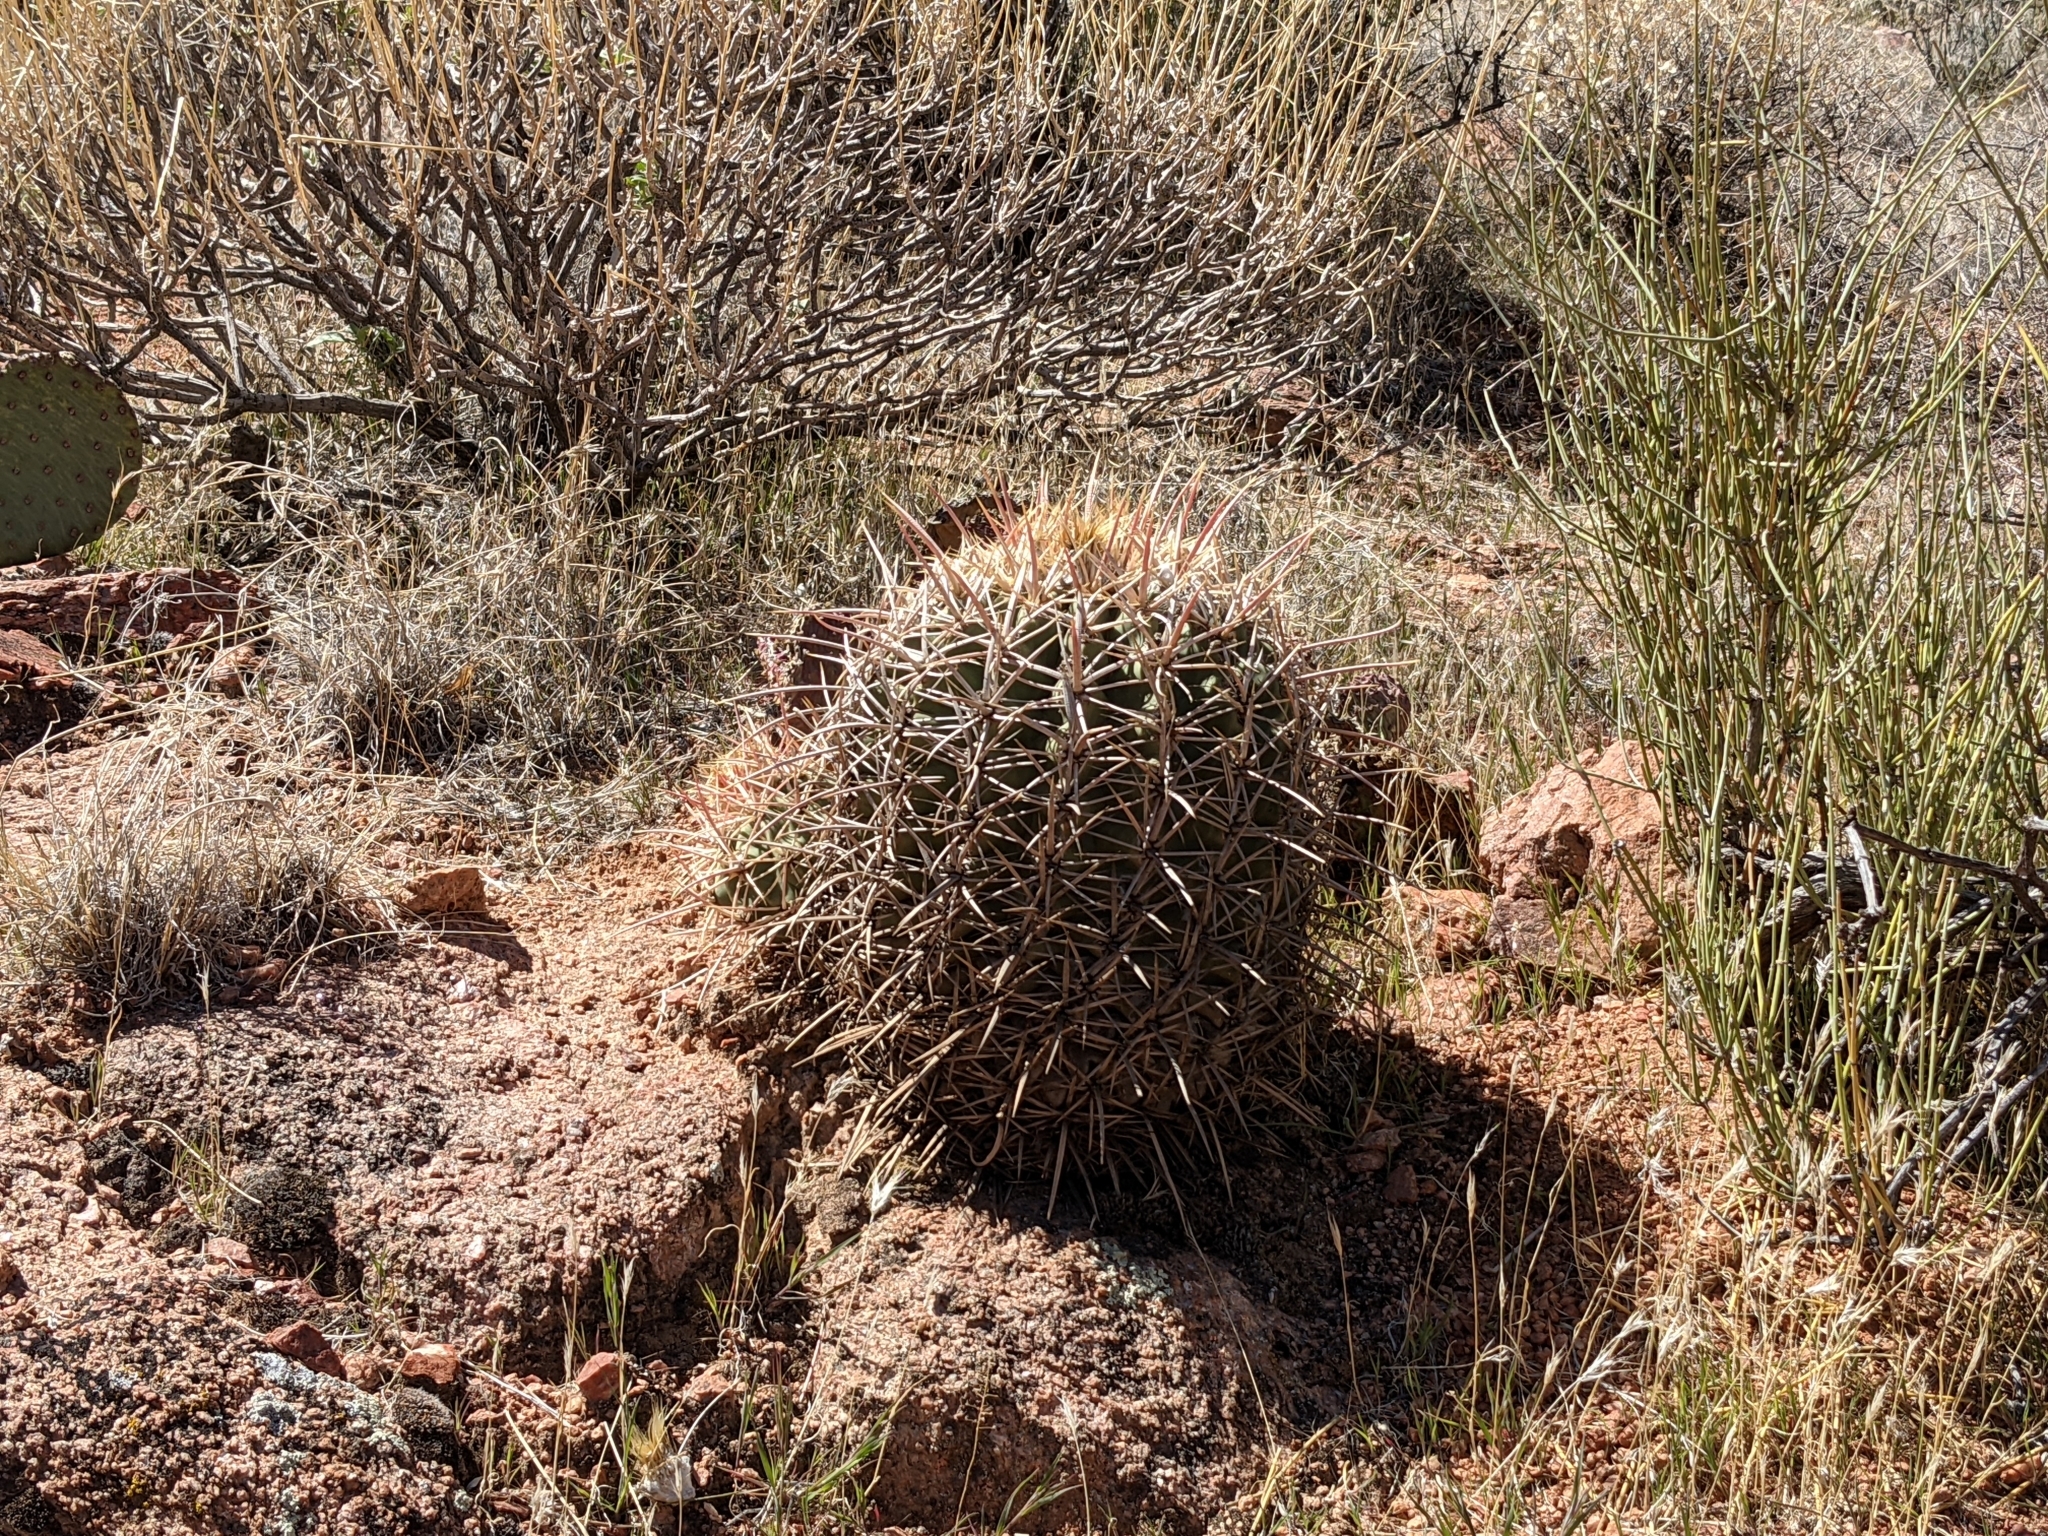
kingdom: Plantae
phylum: Tracheophyta
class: Magnoliopsida
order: Caryophyllales
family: Cactaceae
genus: Echinocactus
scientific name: Echinocactus polycephalus
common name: Cottontop cactus
